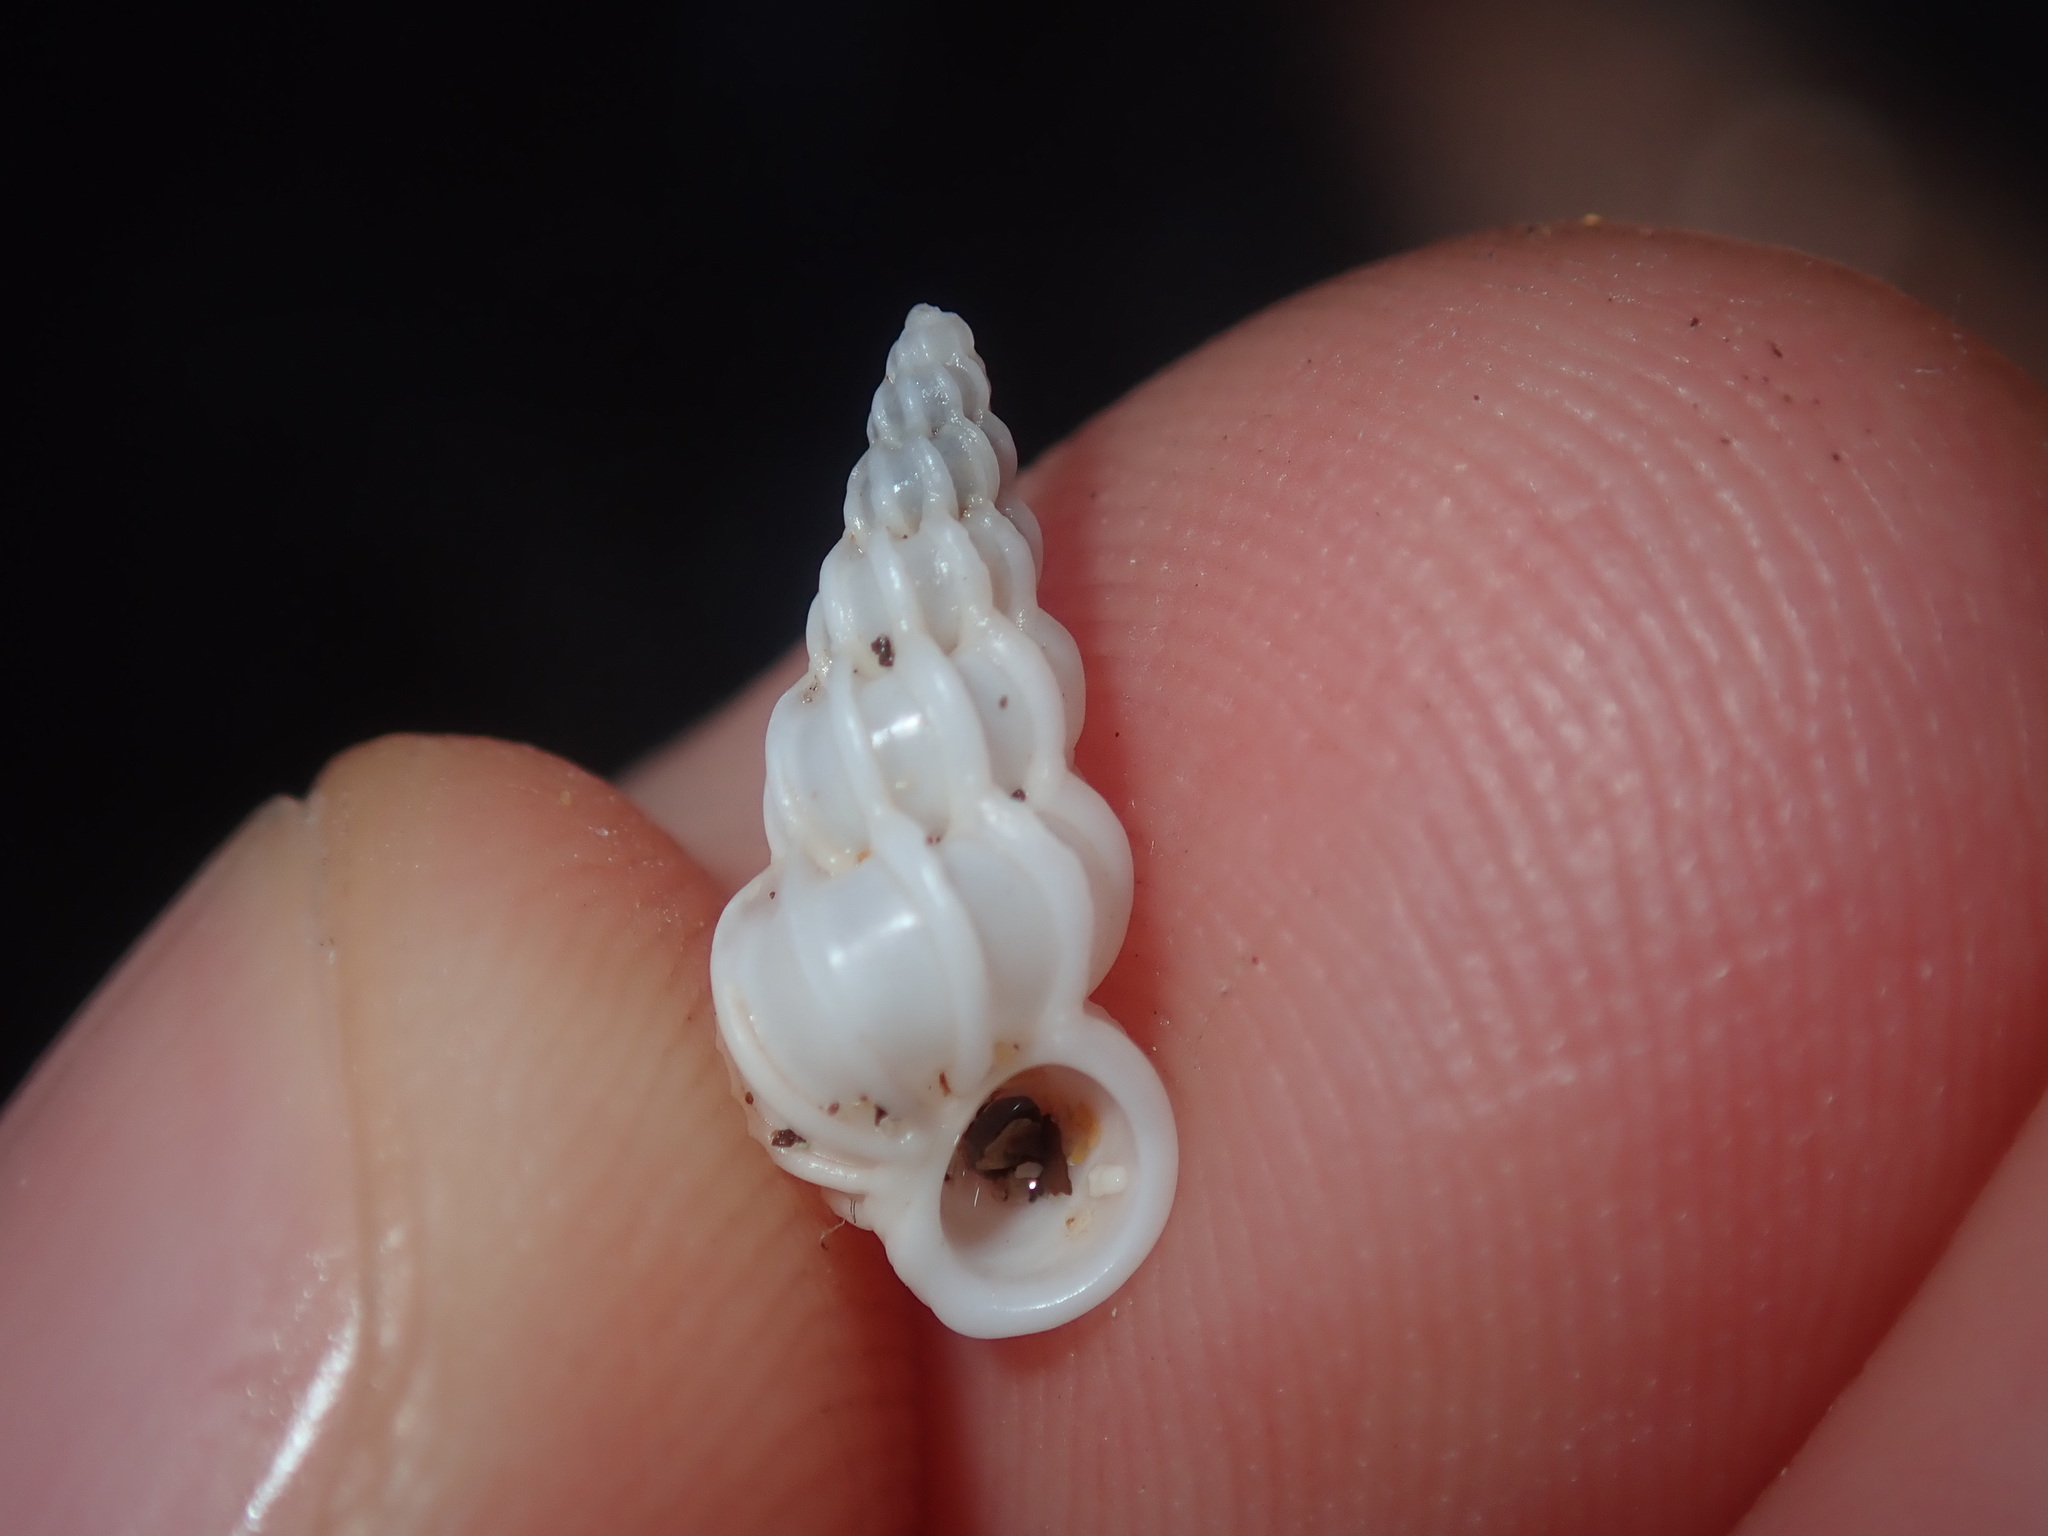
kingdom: Animalia
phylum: Mollusca
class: Gastropoda
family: Epitoniidae
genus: Epitonium
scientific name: Epitonium minorum
